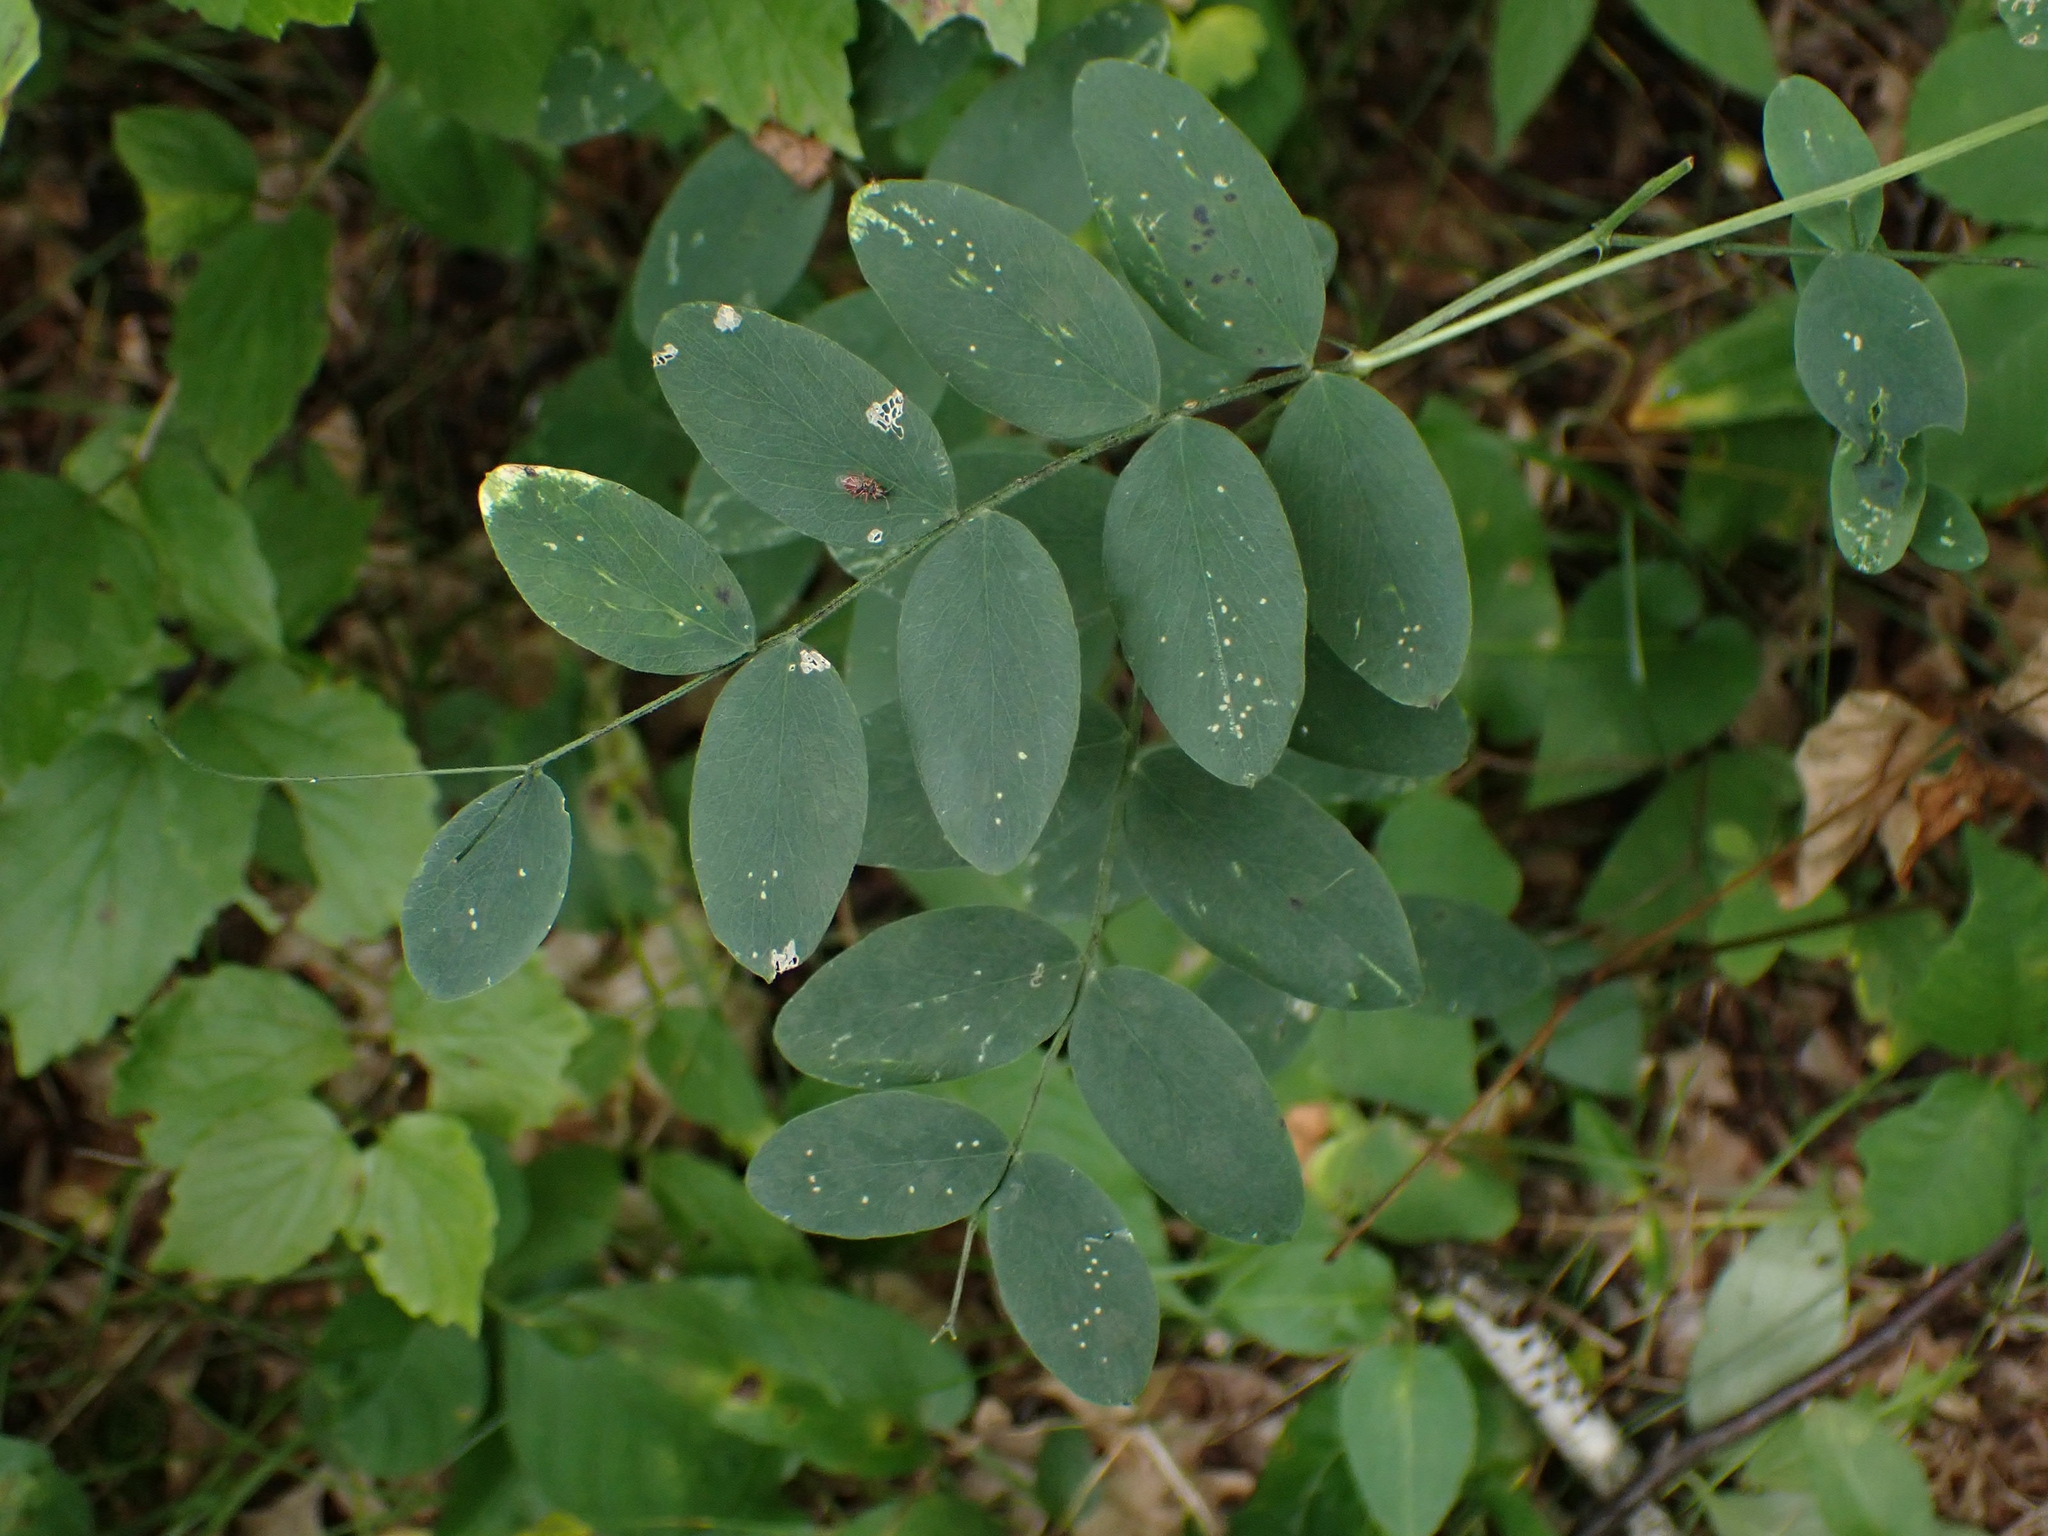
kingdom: Plantae
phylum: Tracheophyta
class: Magnoliopsida
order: Fabales
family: Fabaceae
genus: Lathyrus
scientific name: Lathyrus venosus
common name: Forest-pea
